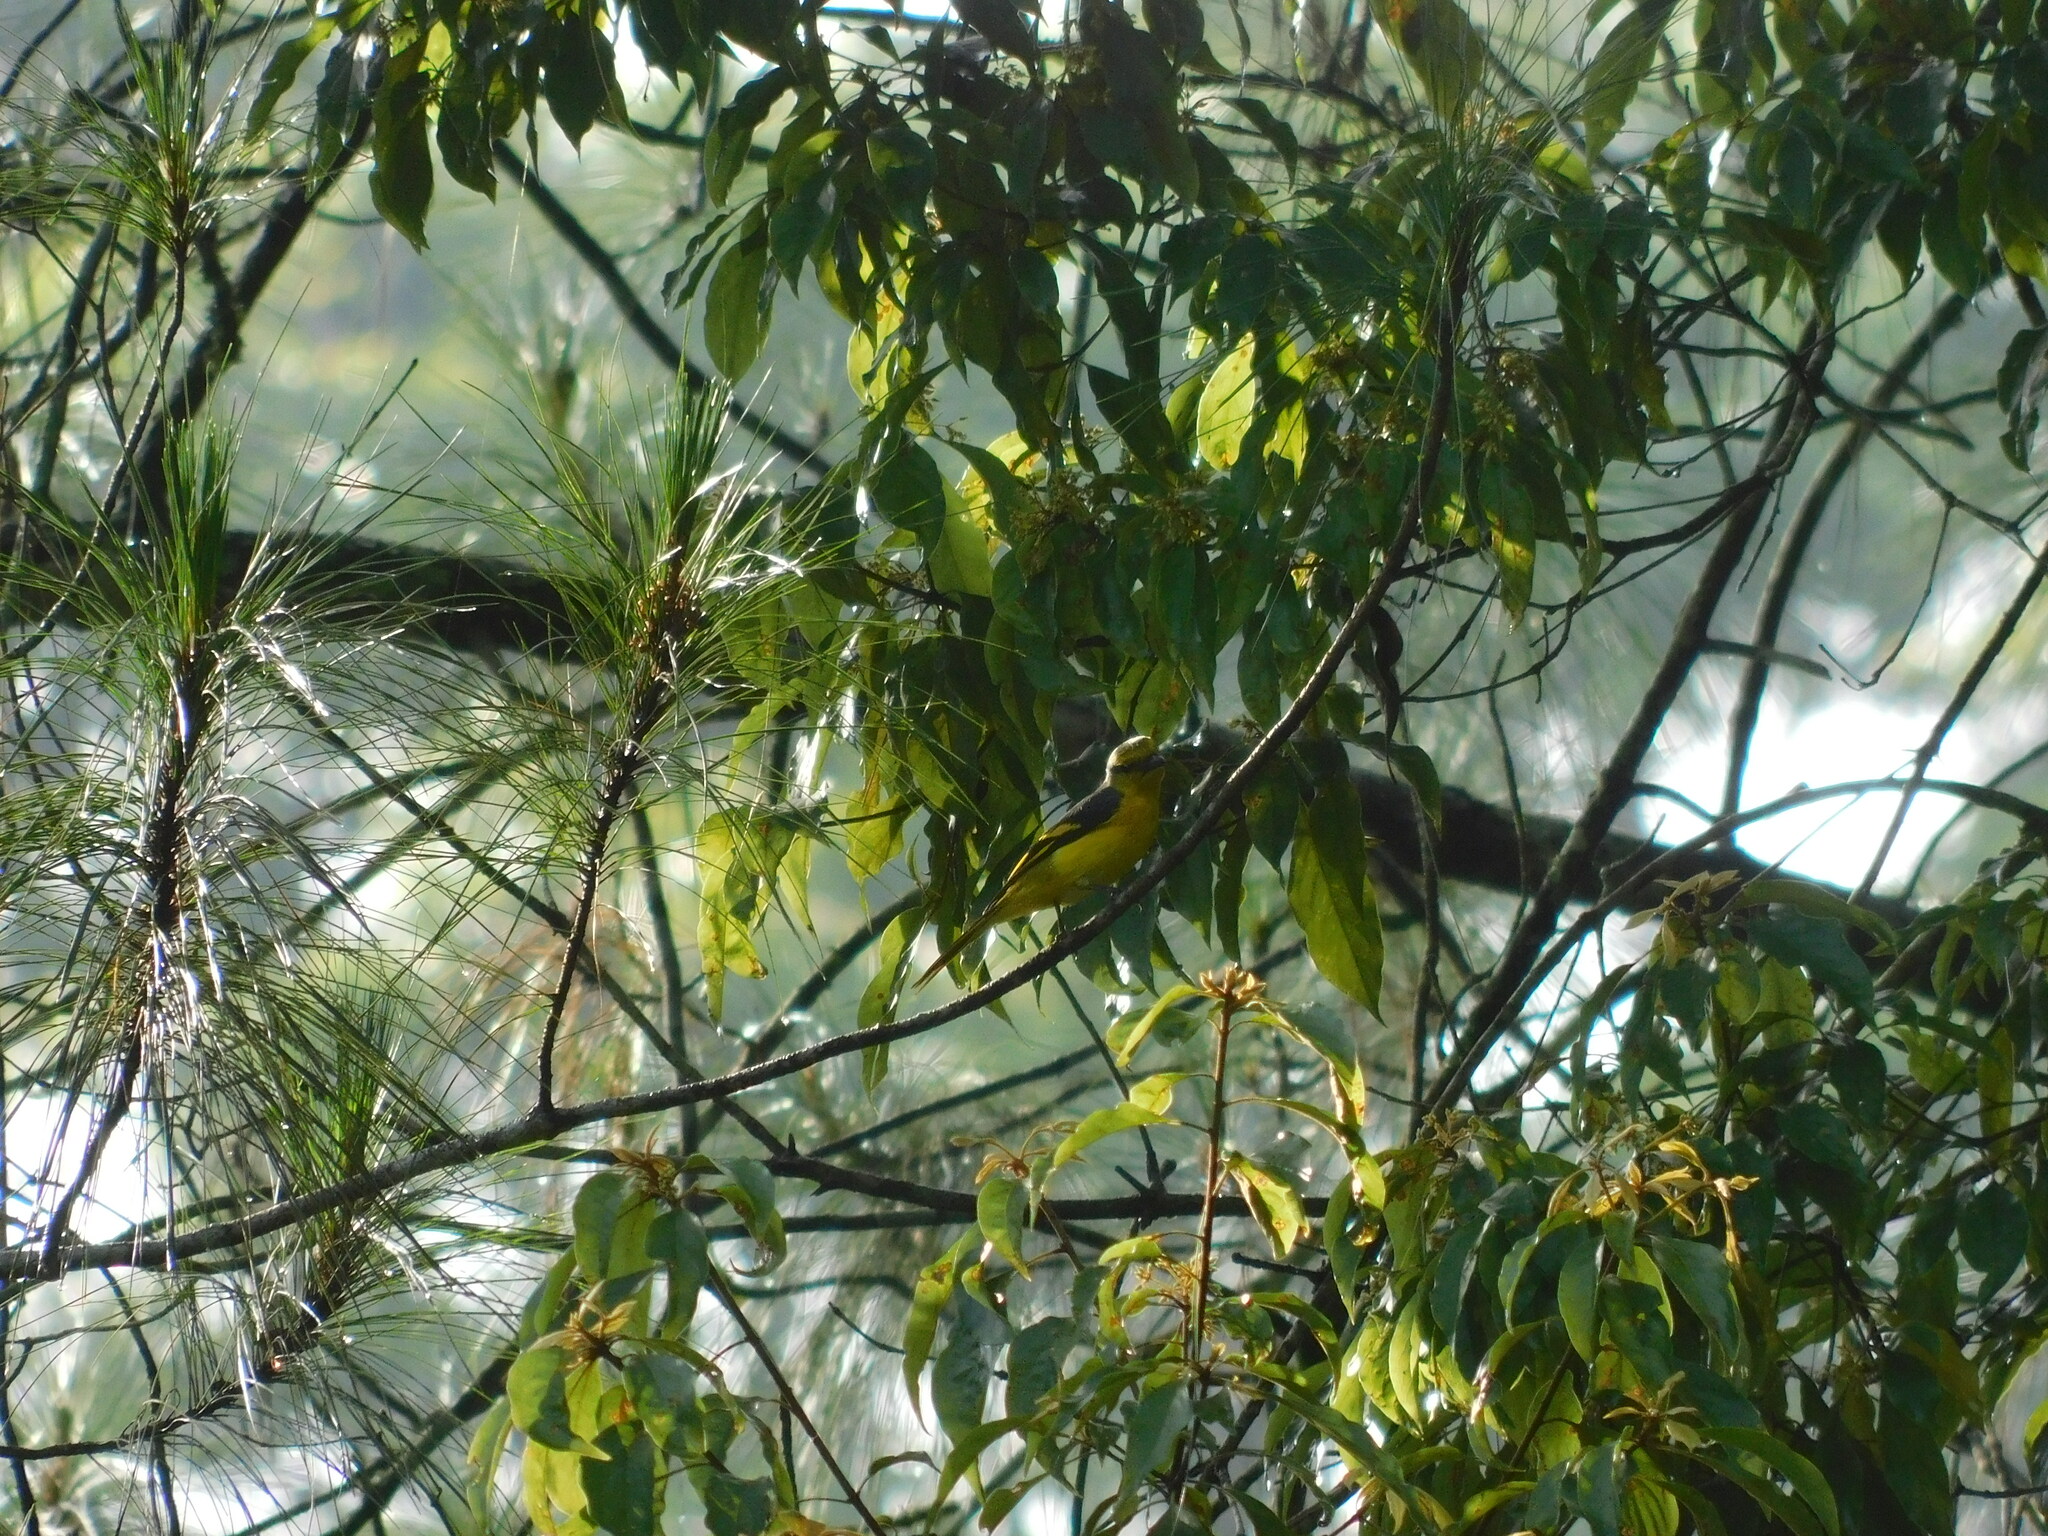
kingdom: Animalia
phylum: Chordata
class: Aves
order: Passeriformes
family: Campephagidae
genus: Pericrocotus
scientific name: Pericrocotus speciosus
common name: Scarlet minivet
